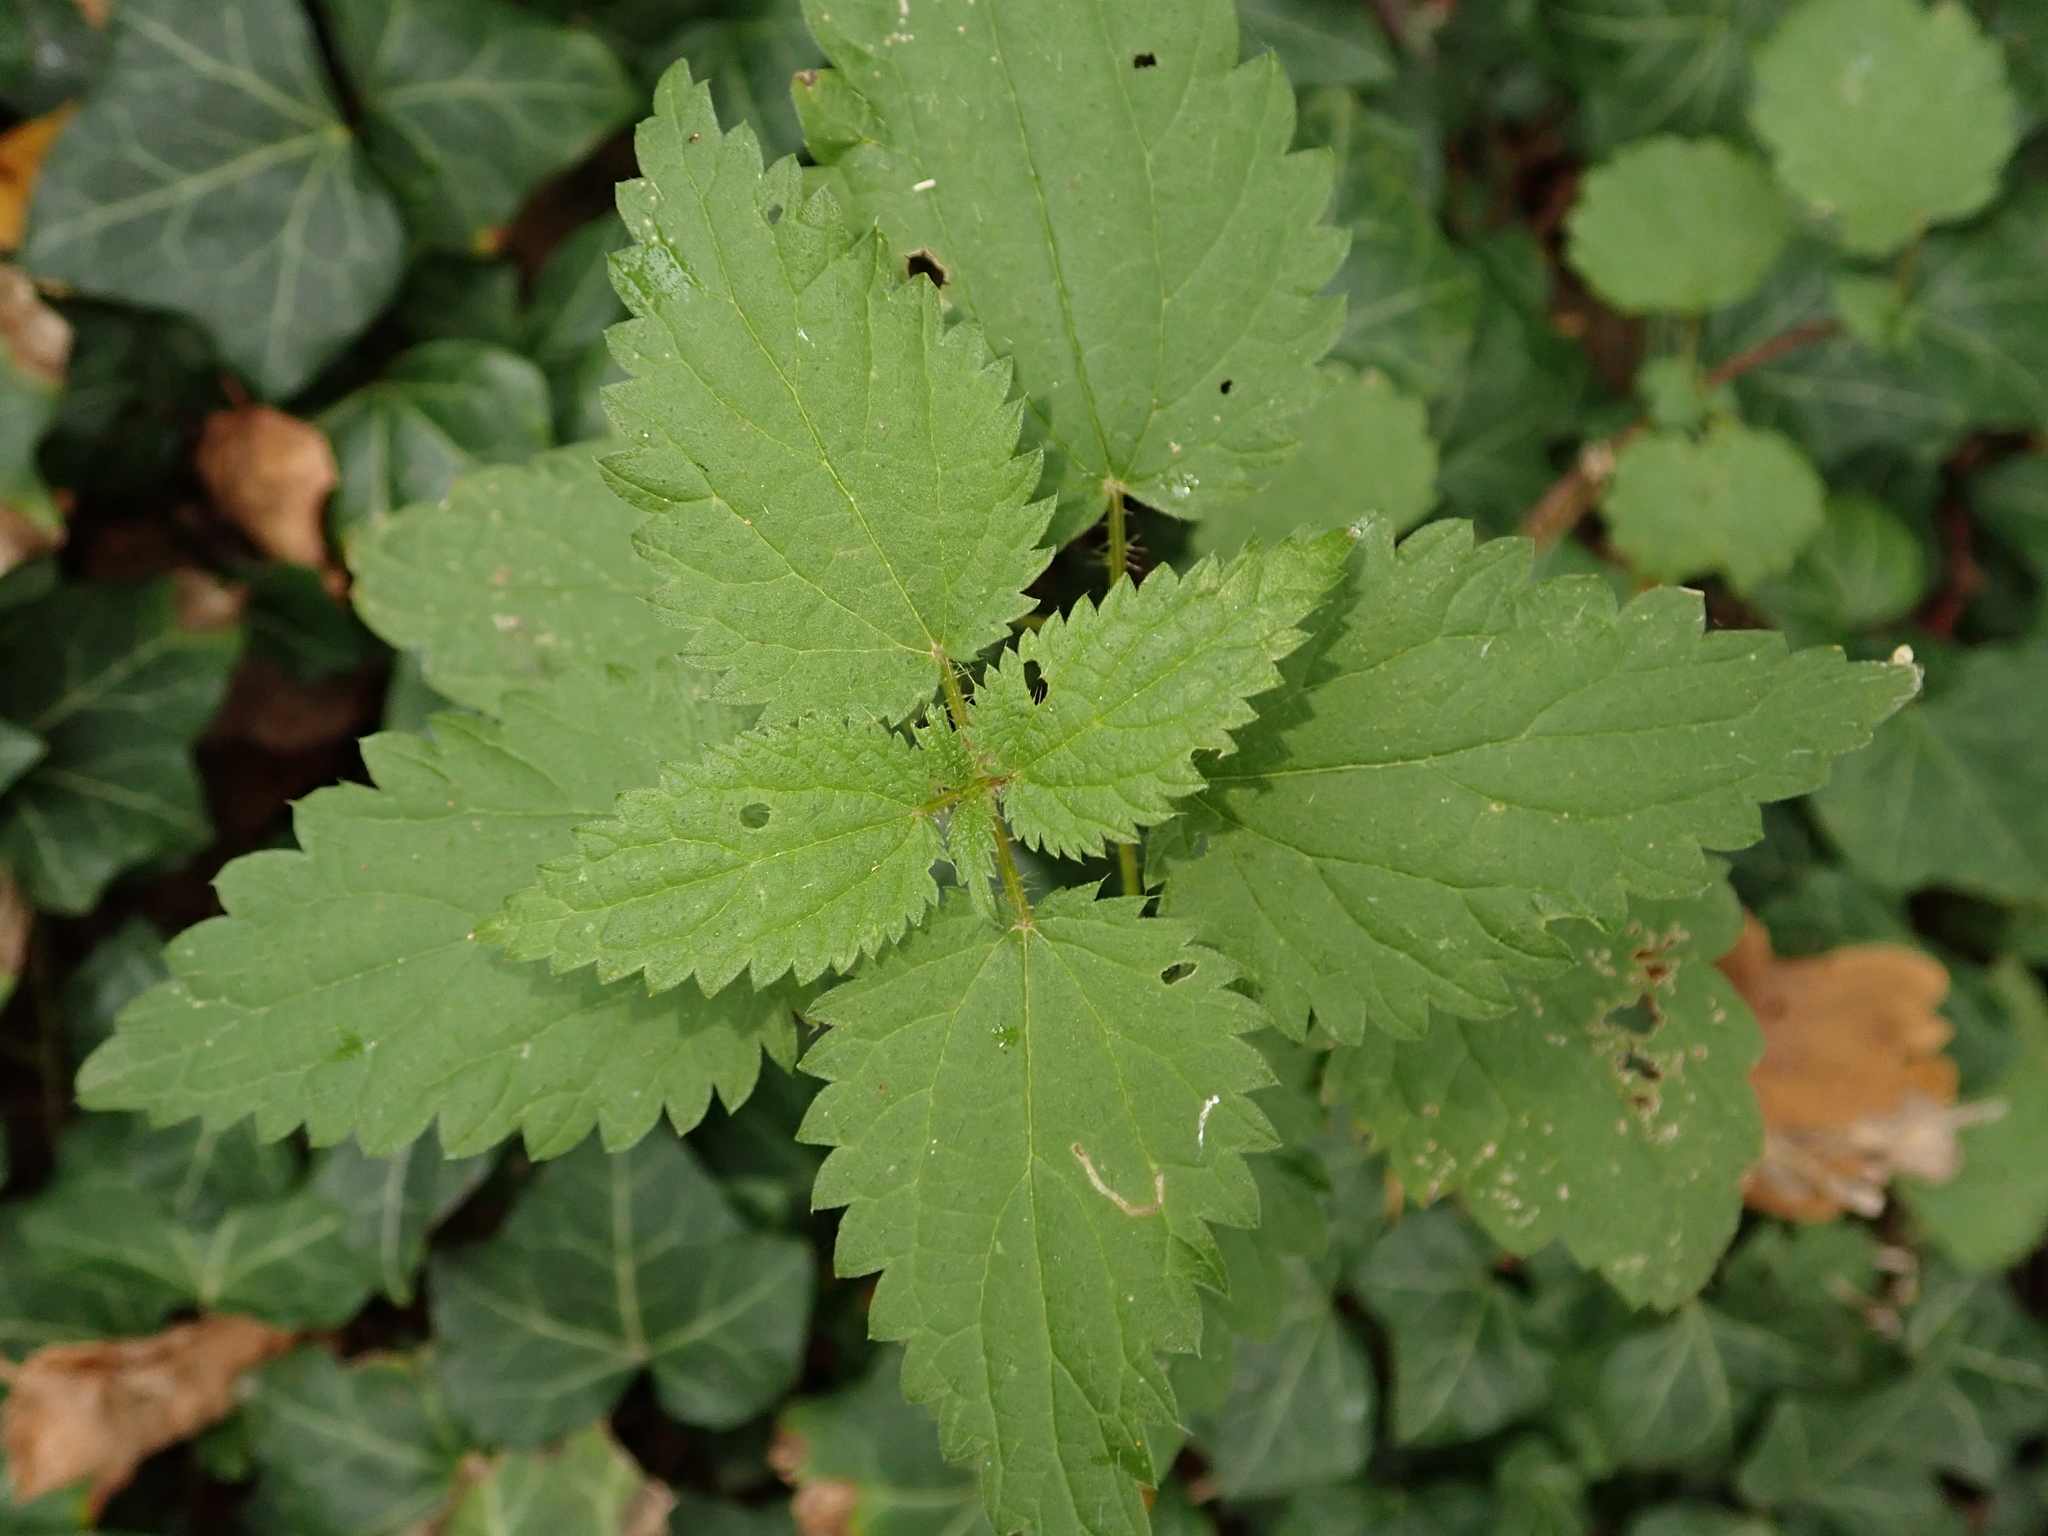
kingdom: Plantae
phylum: Tracheophyta
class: Magnoliopsida
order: Rosales
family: Urticaceae
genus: Urtica
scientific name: Urtica dioica
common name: Common nettle
